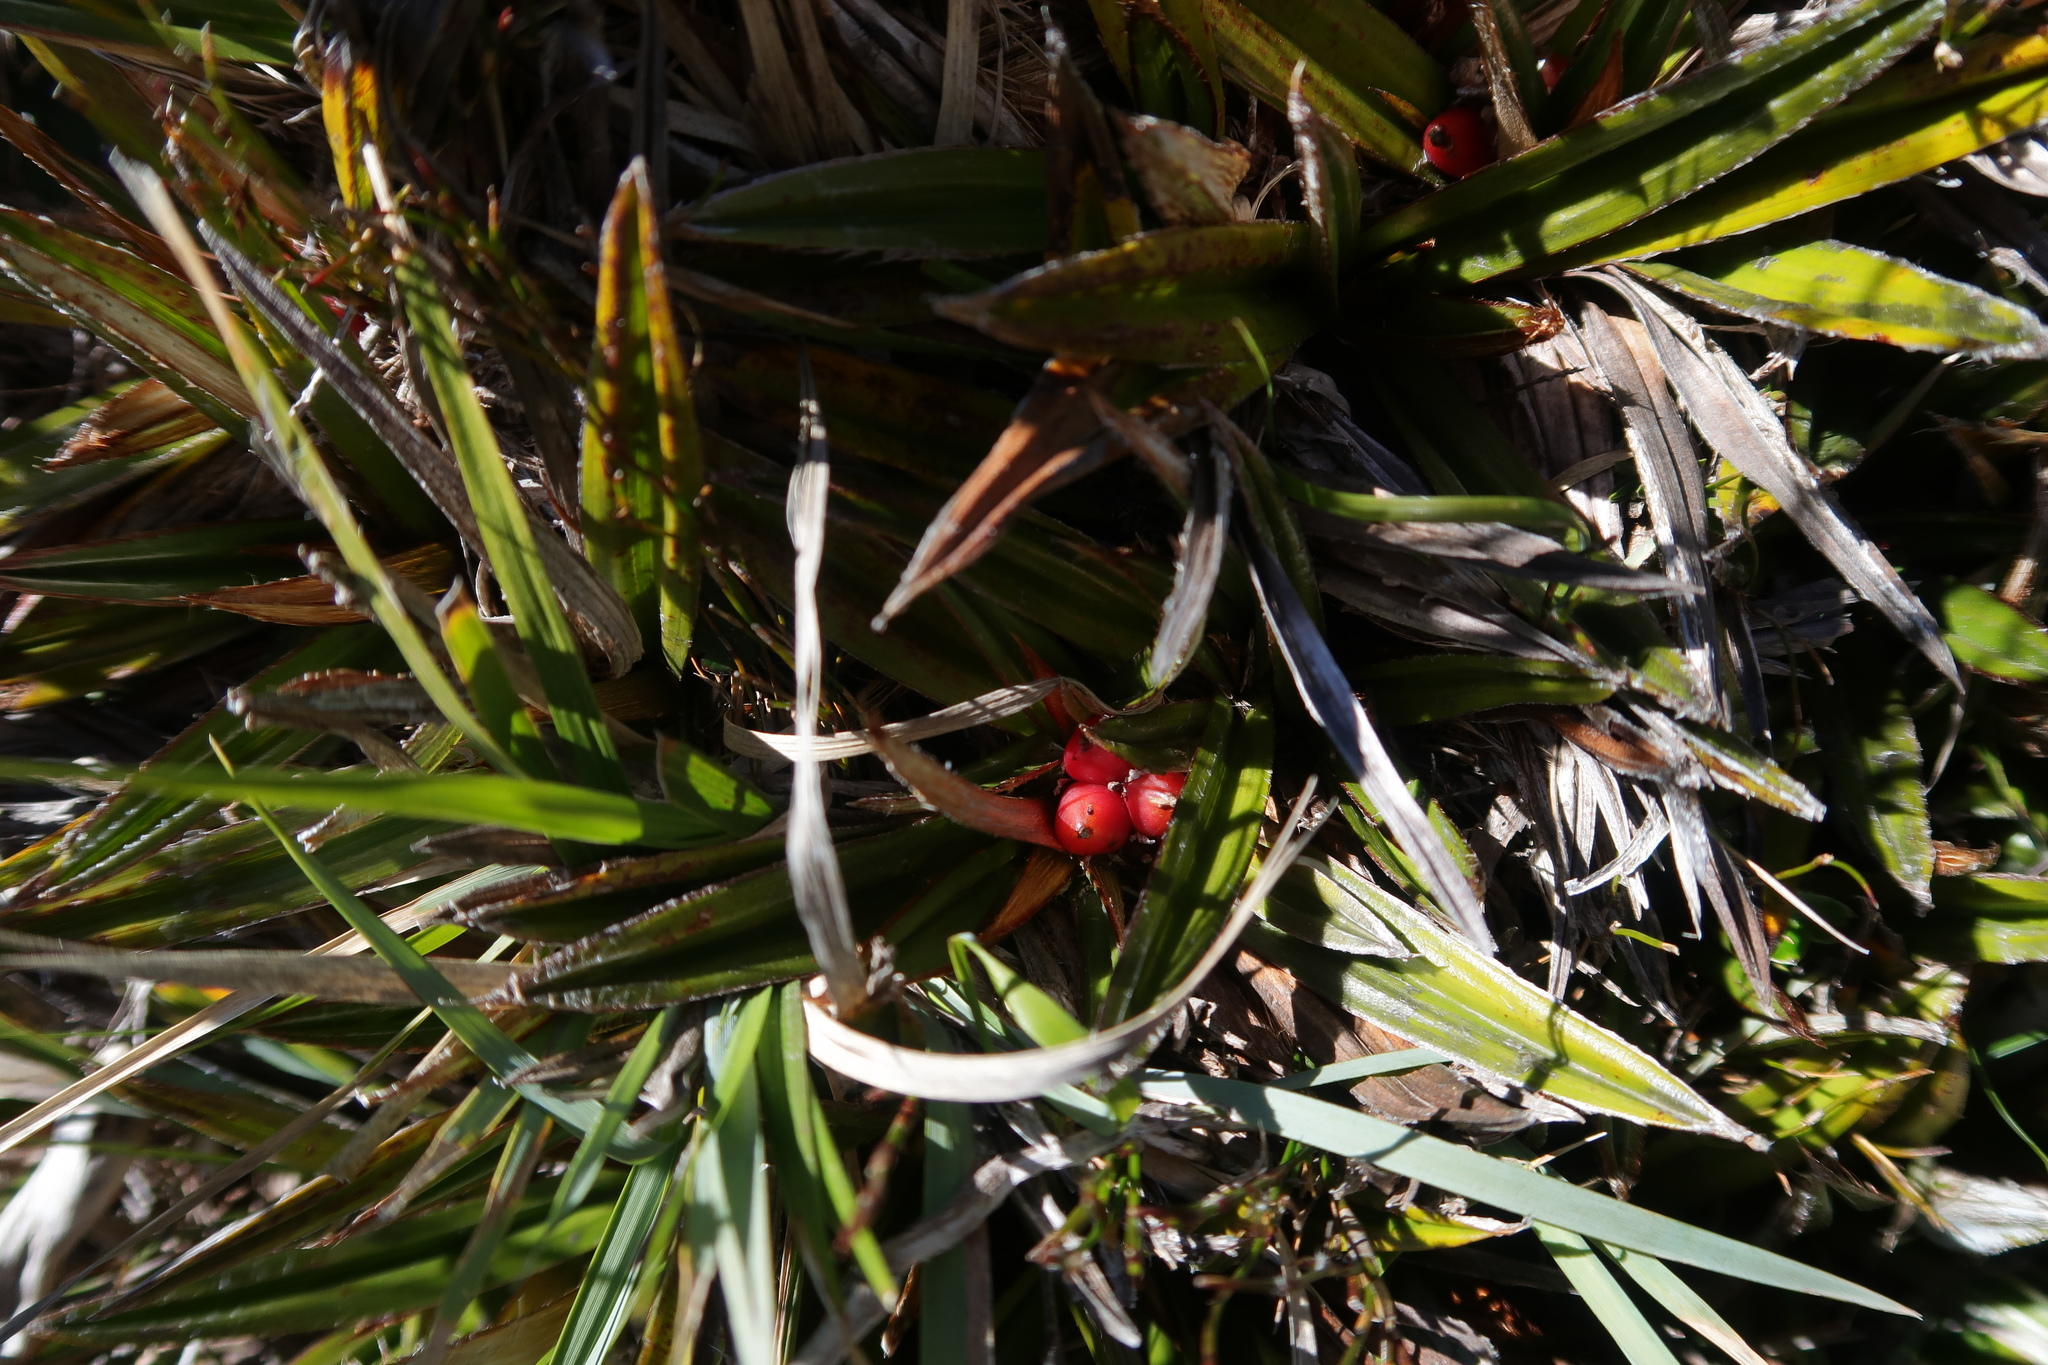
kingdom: Plantae
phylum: Tracheophyta
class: Liliopsida
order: Asparagales
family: Asteliaceae
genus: Astelia
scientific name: Astelia alpina
